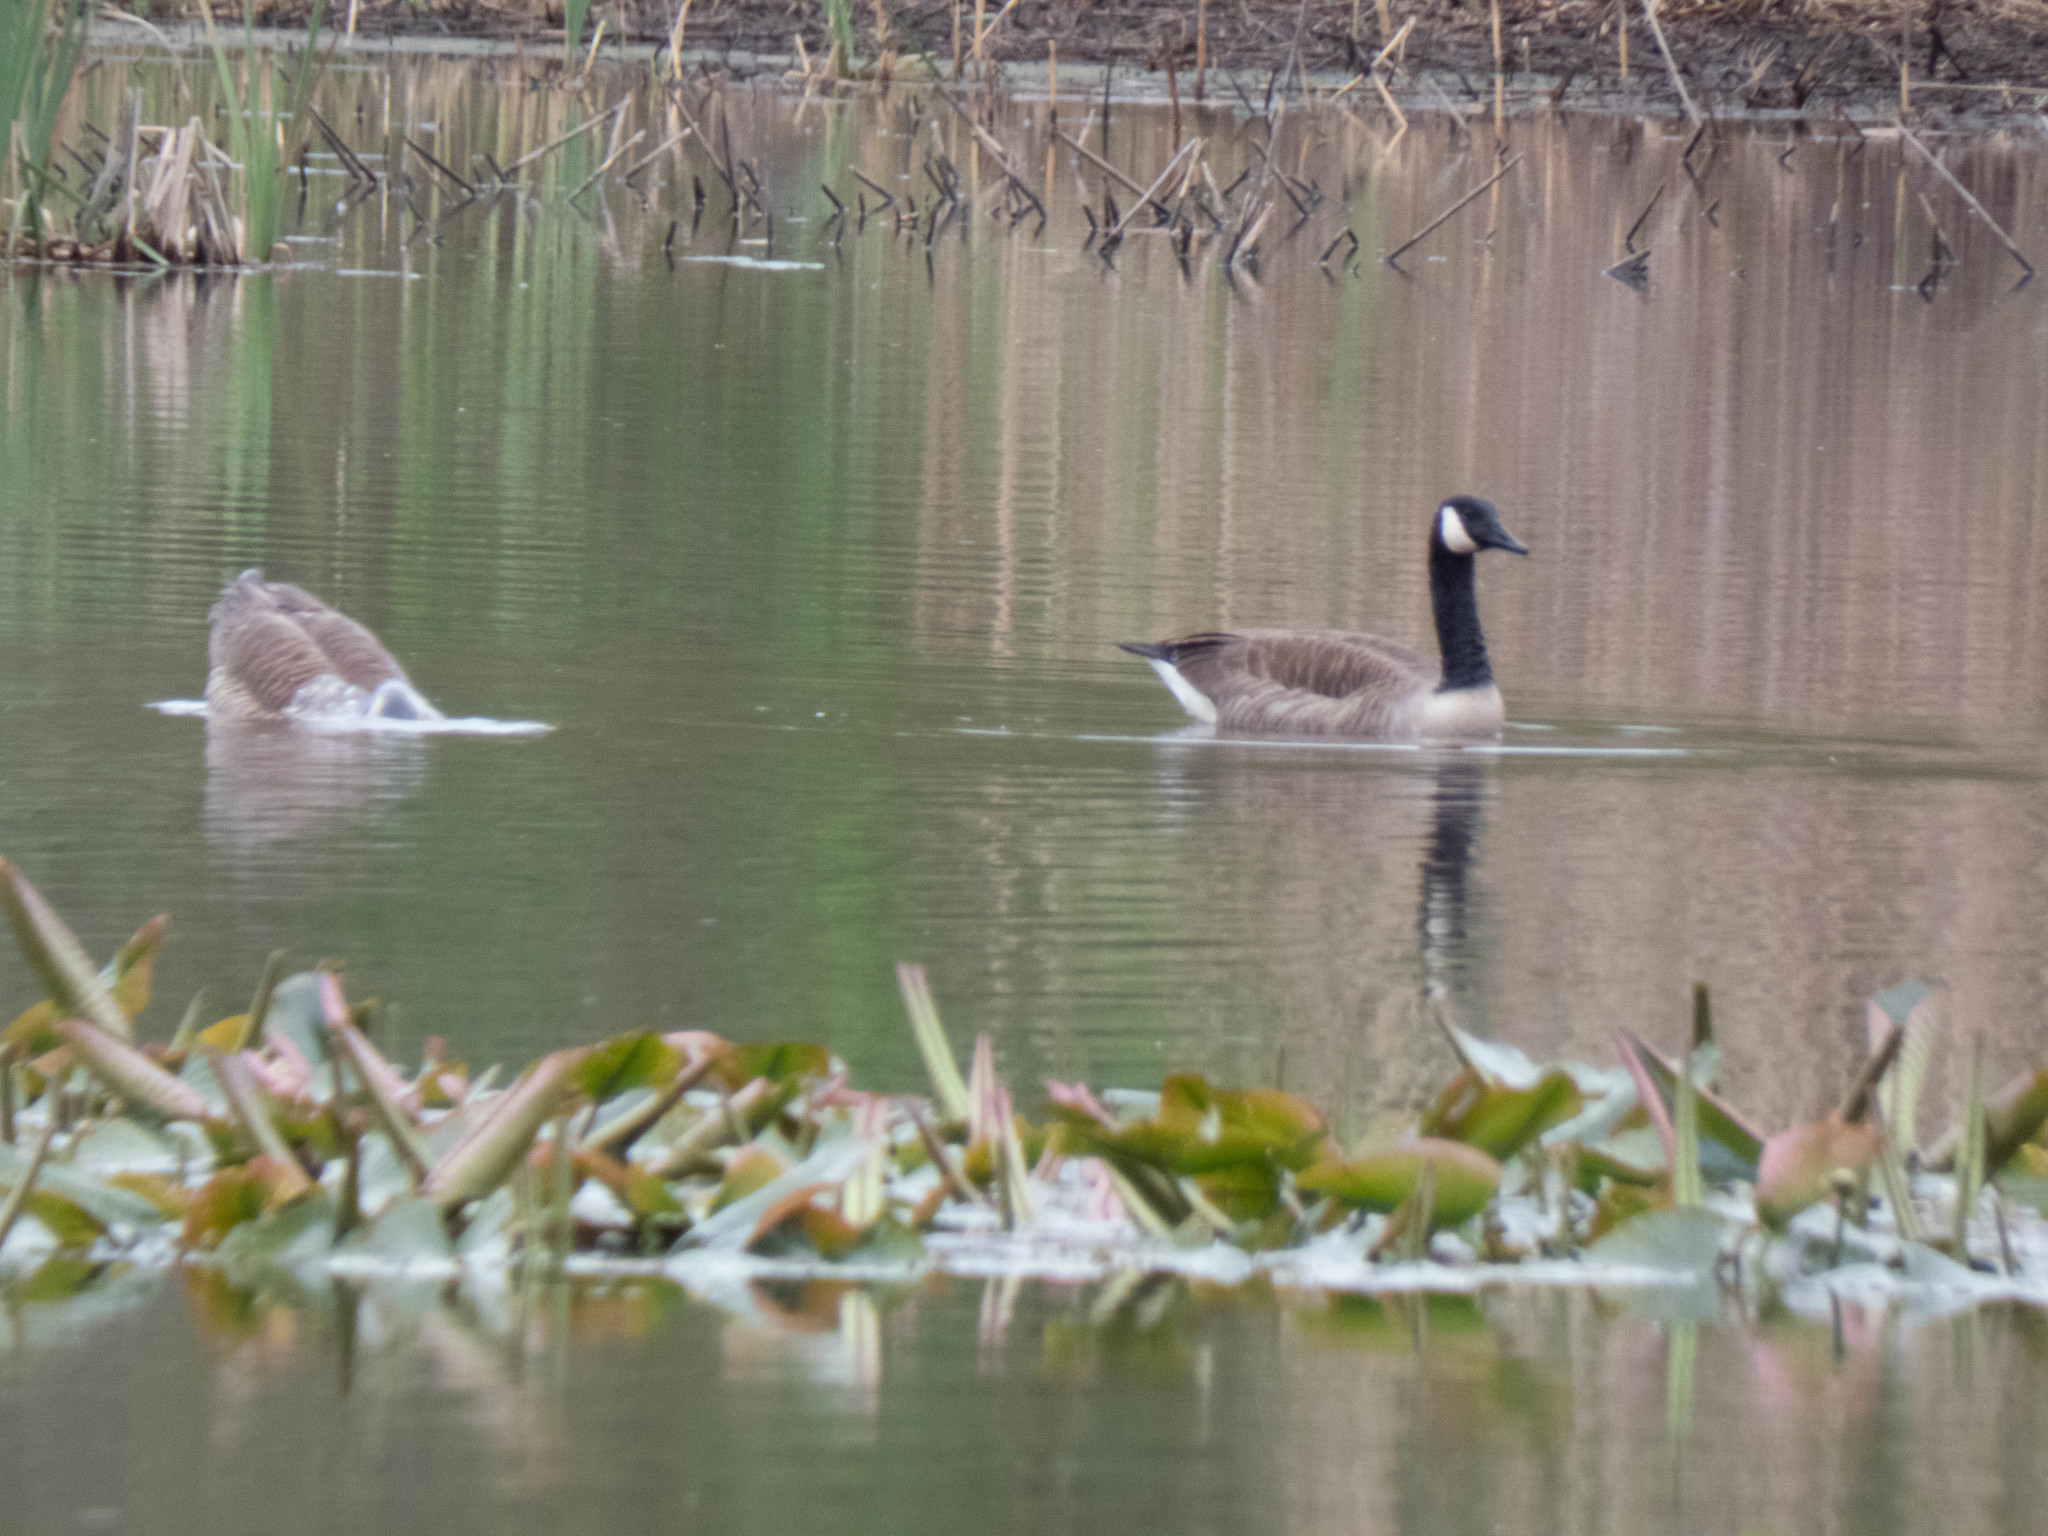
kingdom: Animalia
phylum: Chordata
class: Aves
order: Anseriformes
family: Anatidae
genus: Branta
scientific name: Branta canadensis
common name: Canada goose
